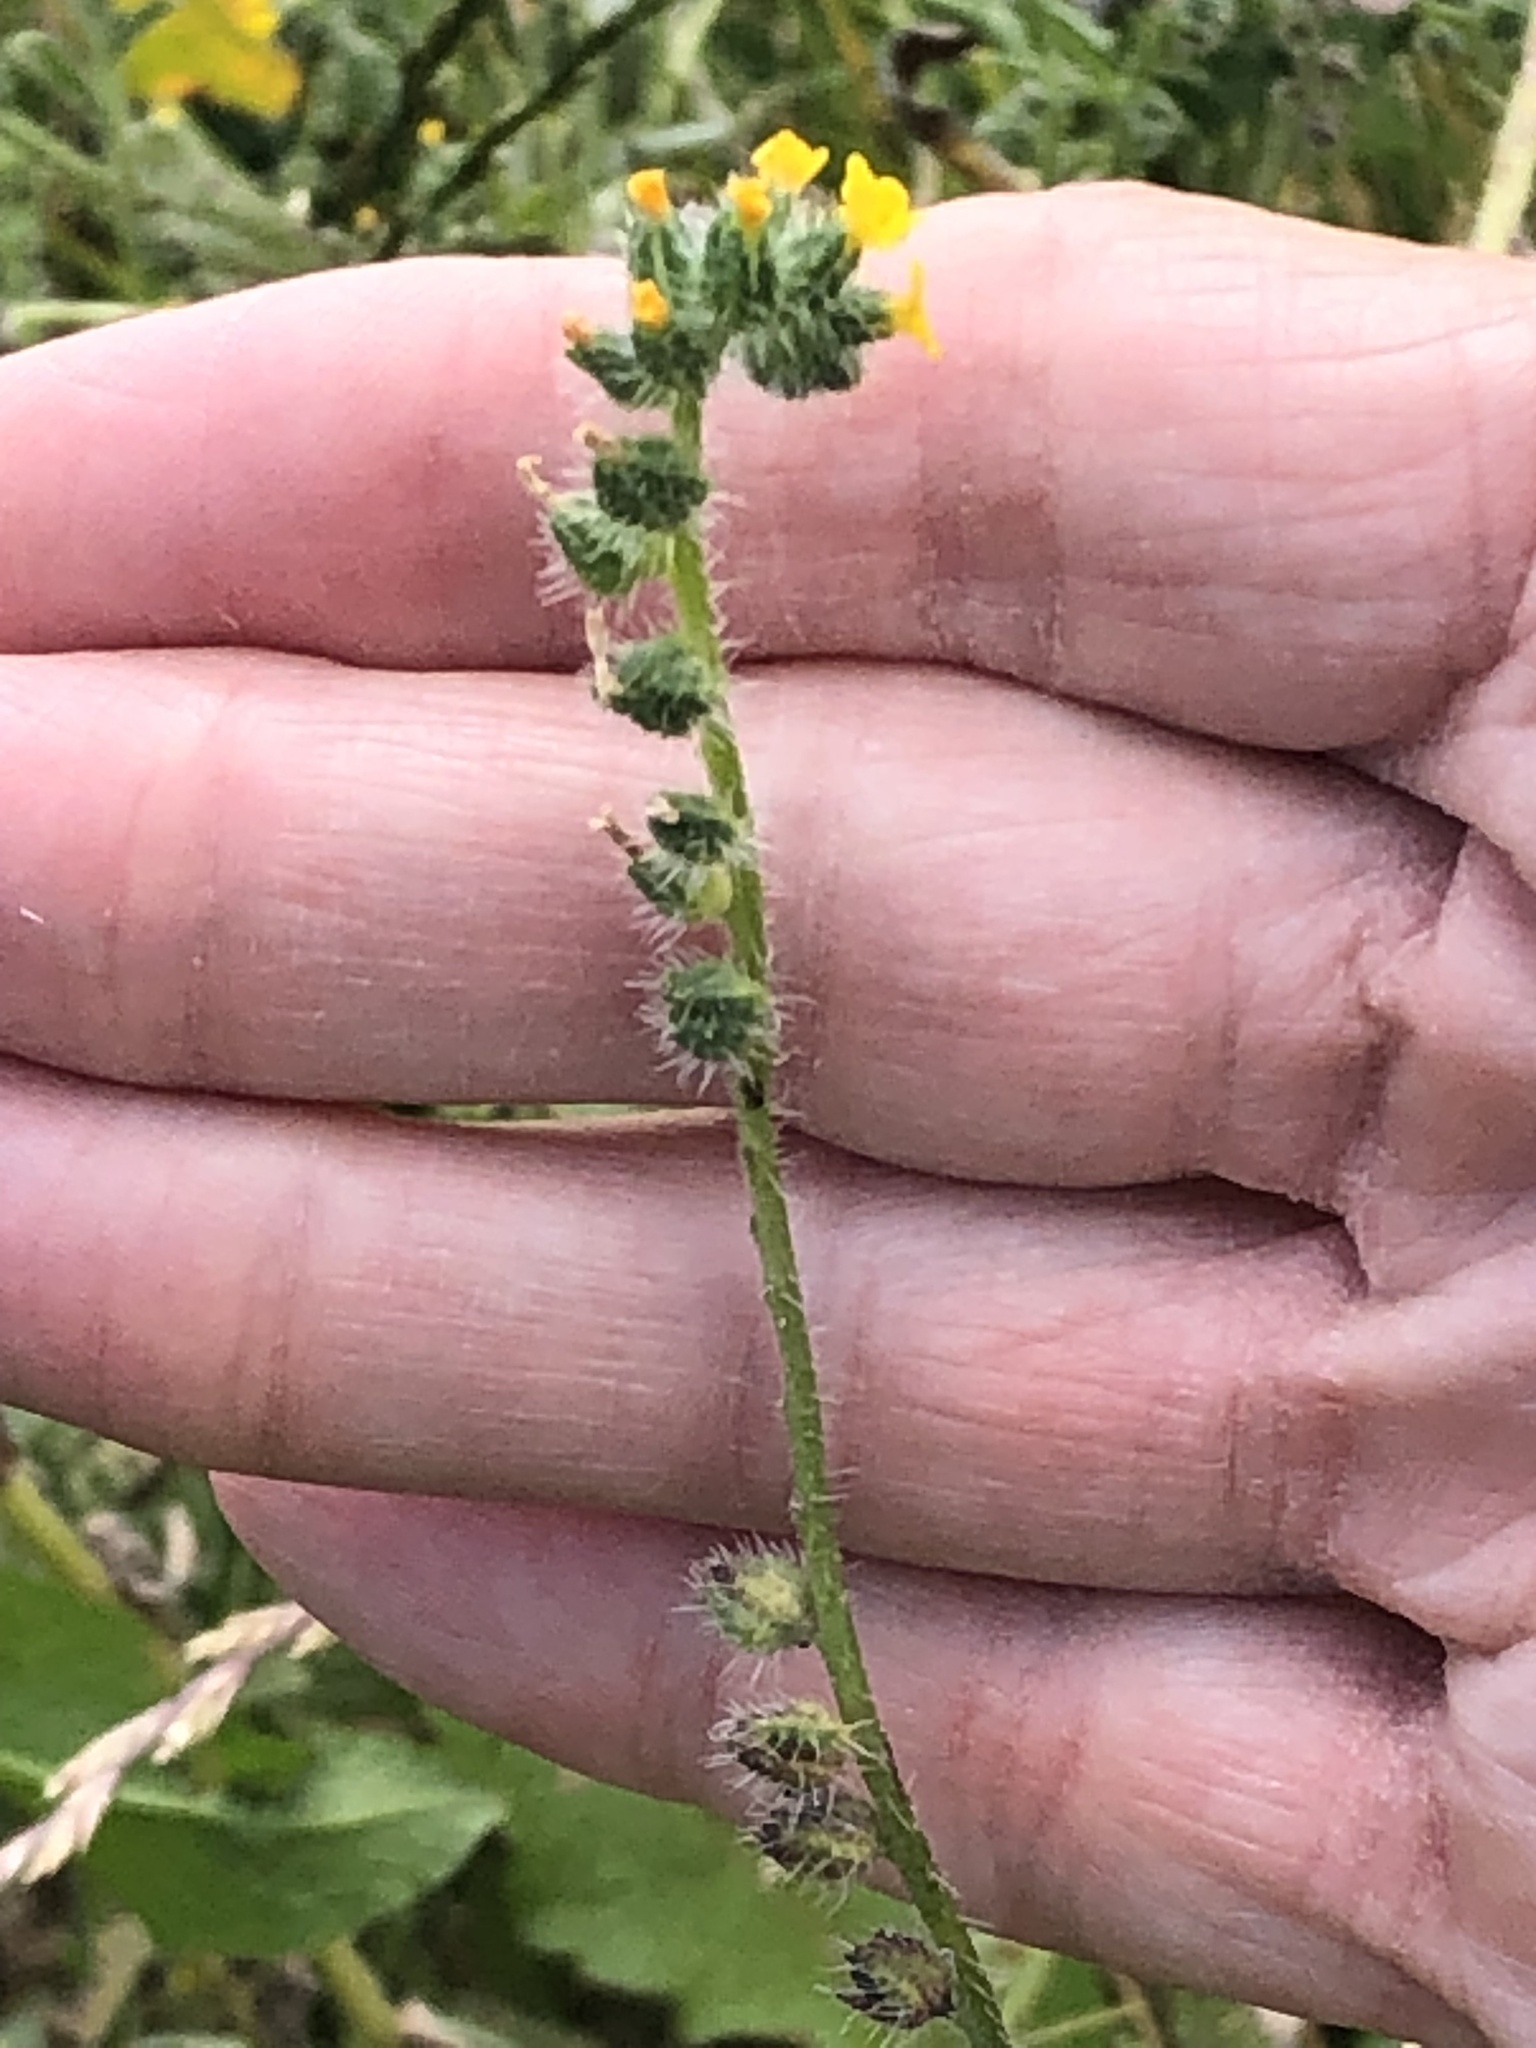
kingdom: Plantae
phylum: Tracheophyta
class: Magnoliopsida
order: Boraginales
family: Boraginaceae
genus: Amsinckia
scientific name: Amsinckia menziesii
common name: Menzies' fiddleneck
